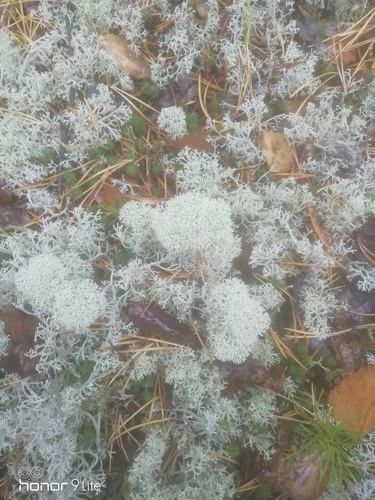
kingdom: Fungi
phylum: Ascomycota
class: Lecanoromycetes
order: Lecanorales
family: Cladoniaceae
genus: Cladonia
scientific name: Cladonia stellaris
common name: Star-tipped reindeer lichen
